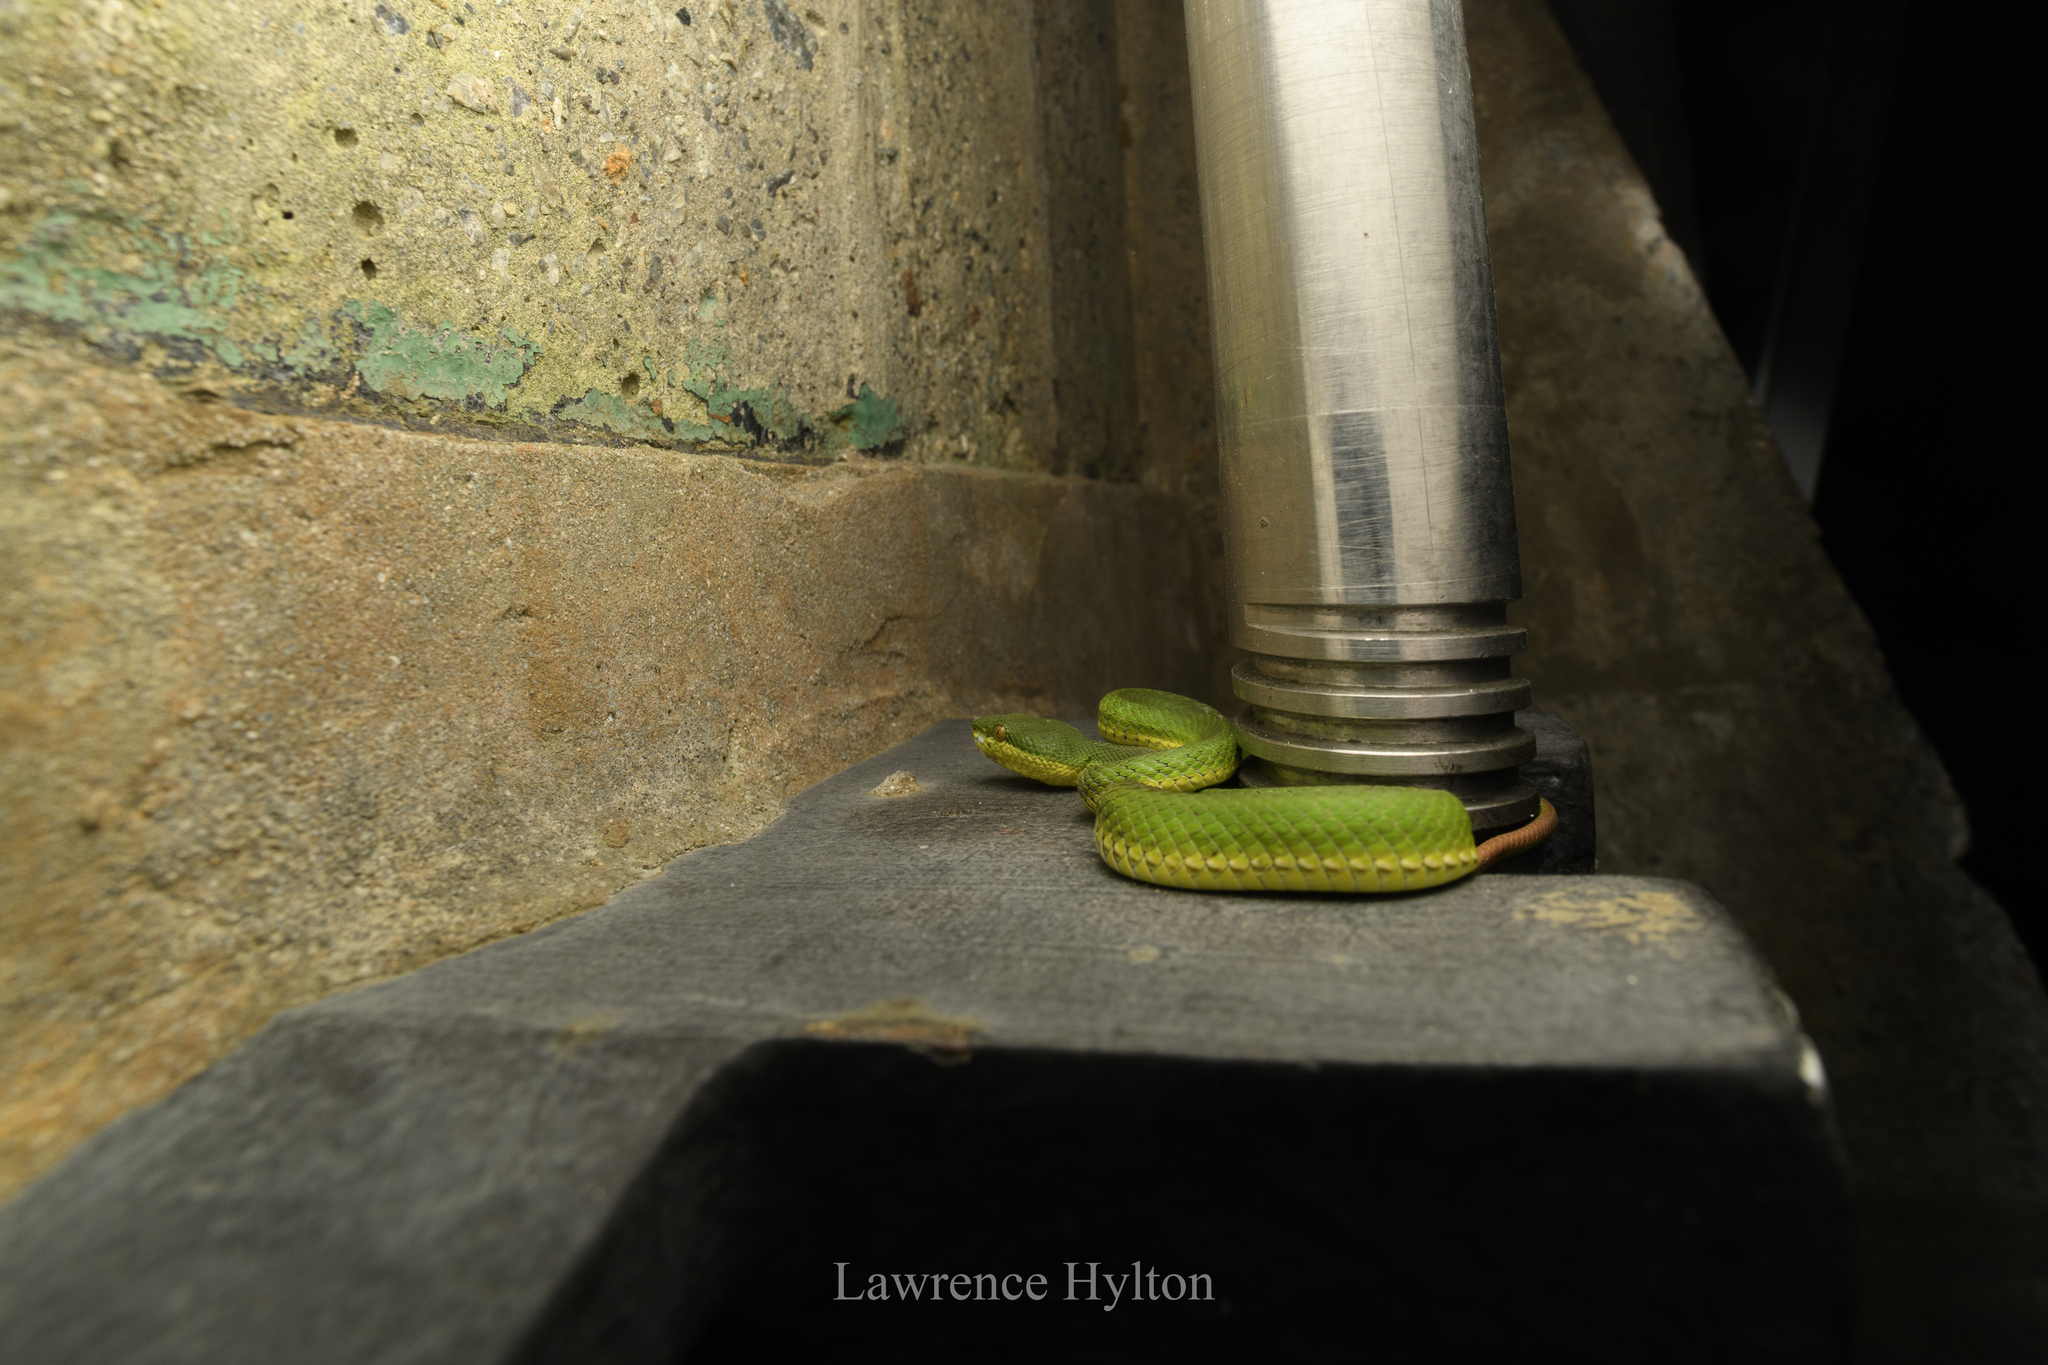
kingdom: Animalia
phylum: Chordata
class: Squamata
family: Viperidae
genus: Trimeresurus
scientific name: Trimeresurus albolabris
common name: White-lipped pitviper
